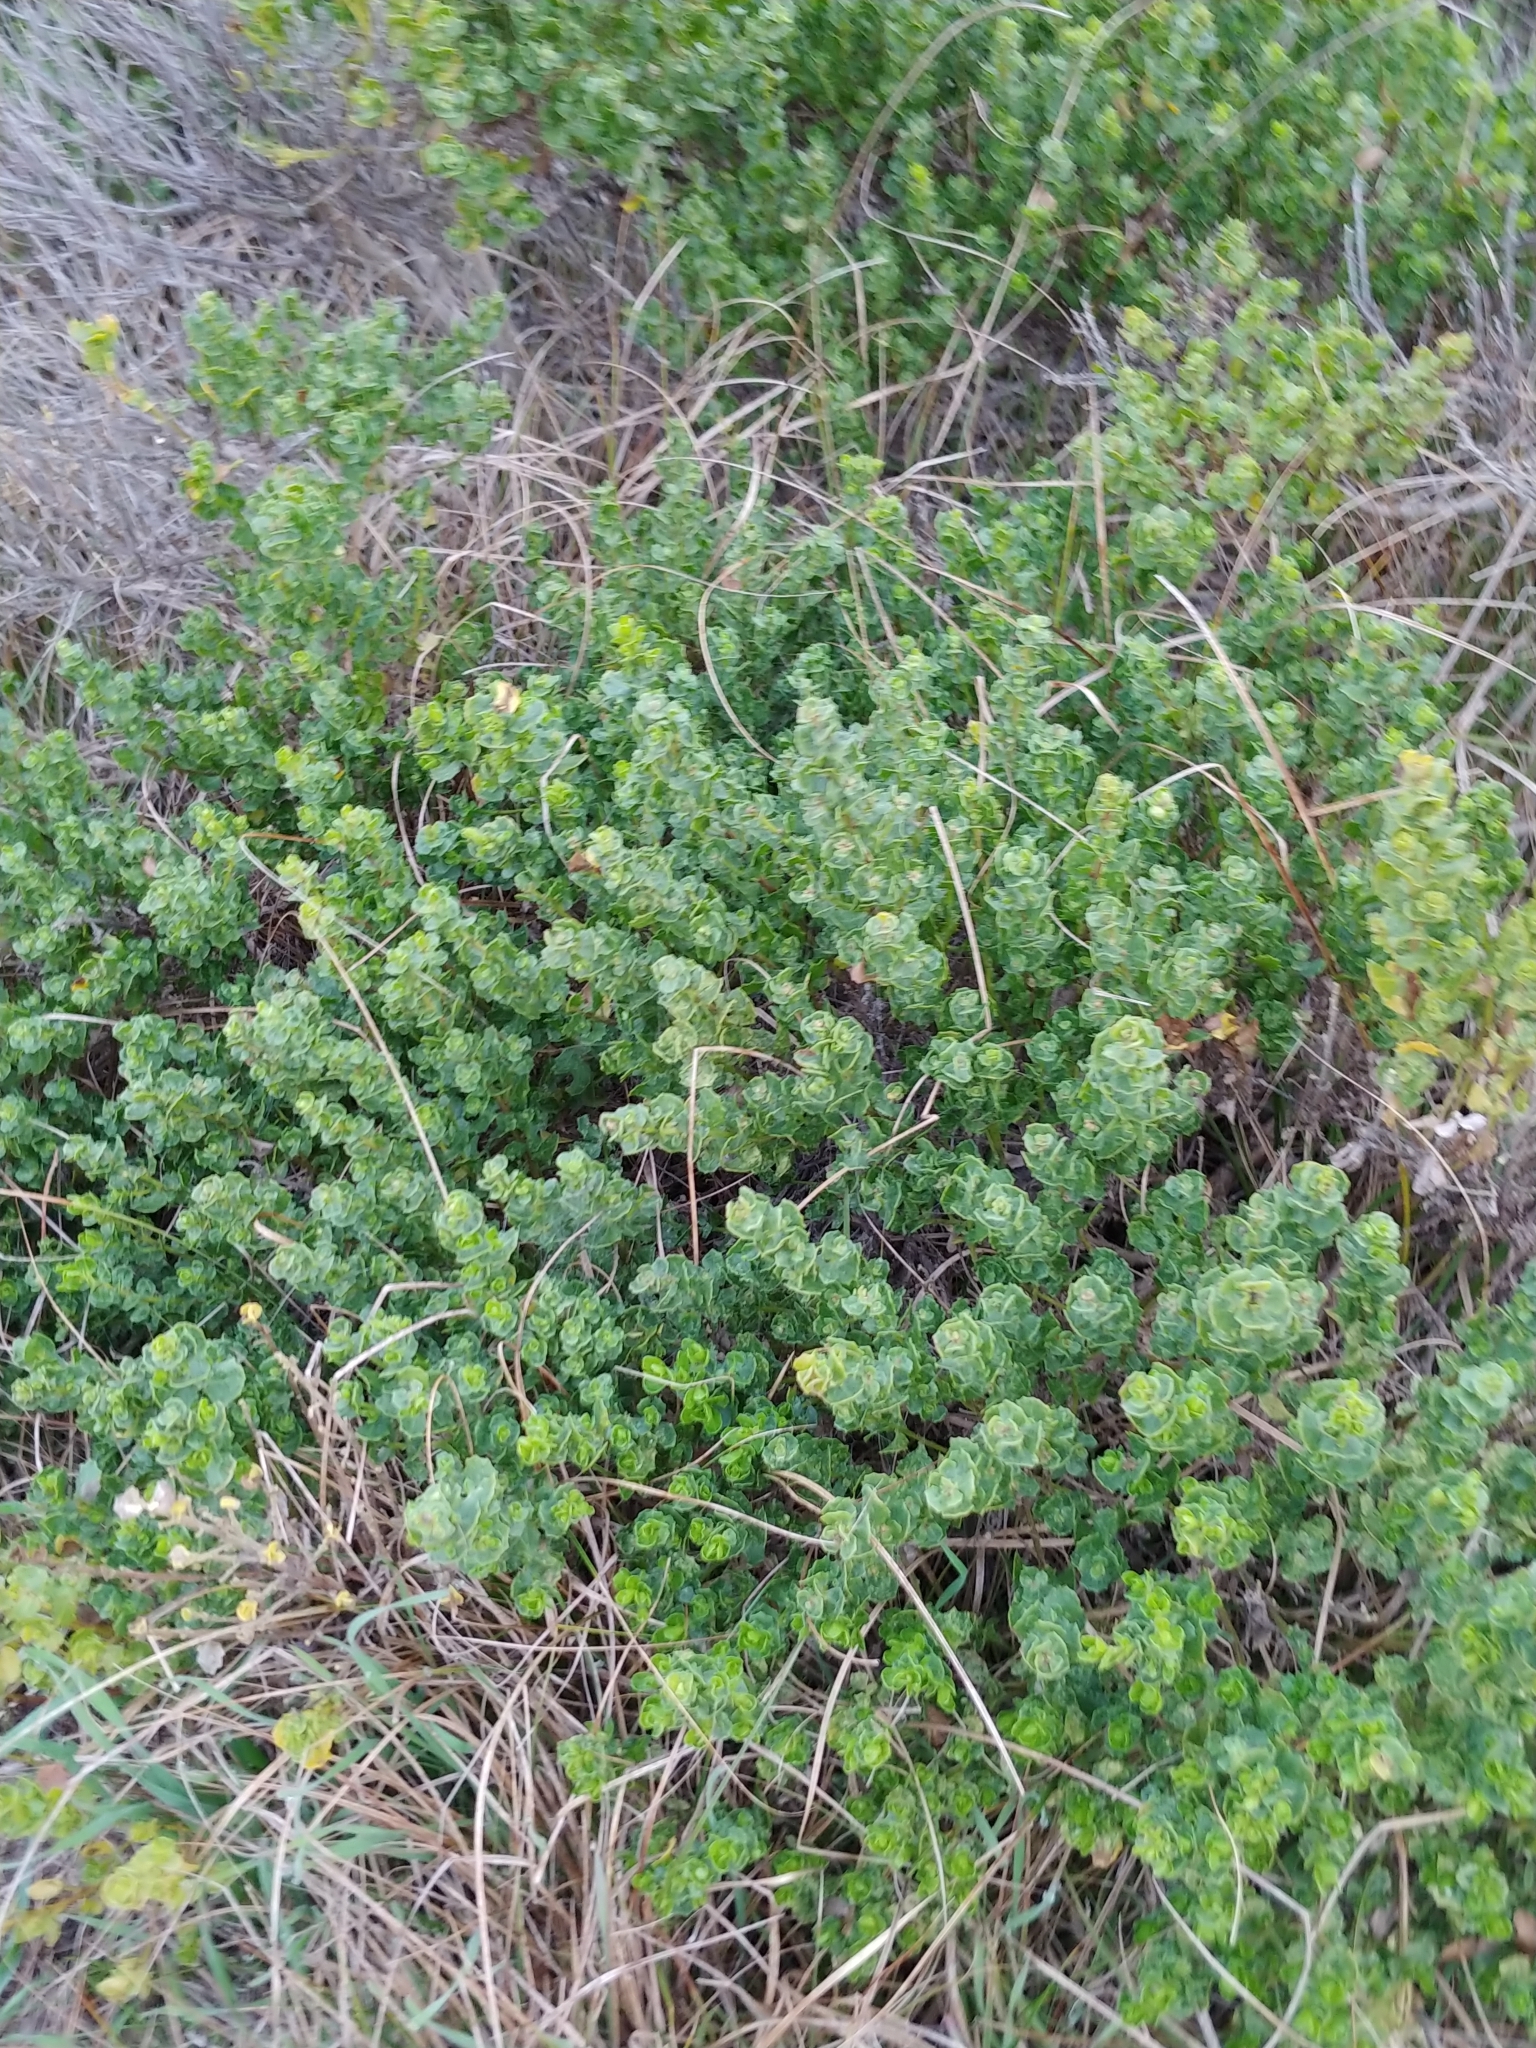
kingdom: Plantae
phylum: Tracheophyta
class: Magnoliopsida
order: Asterales
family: Asteraceae
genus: Baccharis
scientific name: Baccharis pilularis
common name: Coyotebrush
